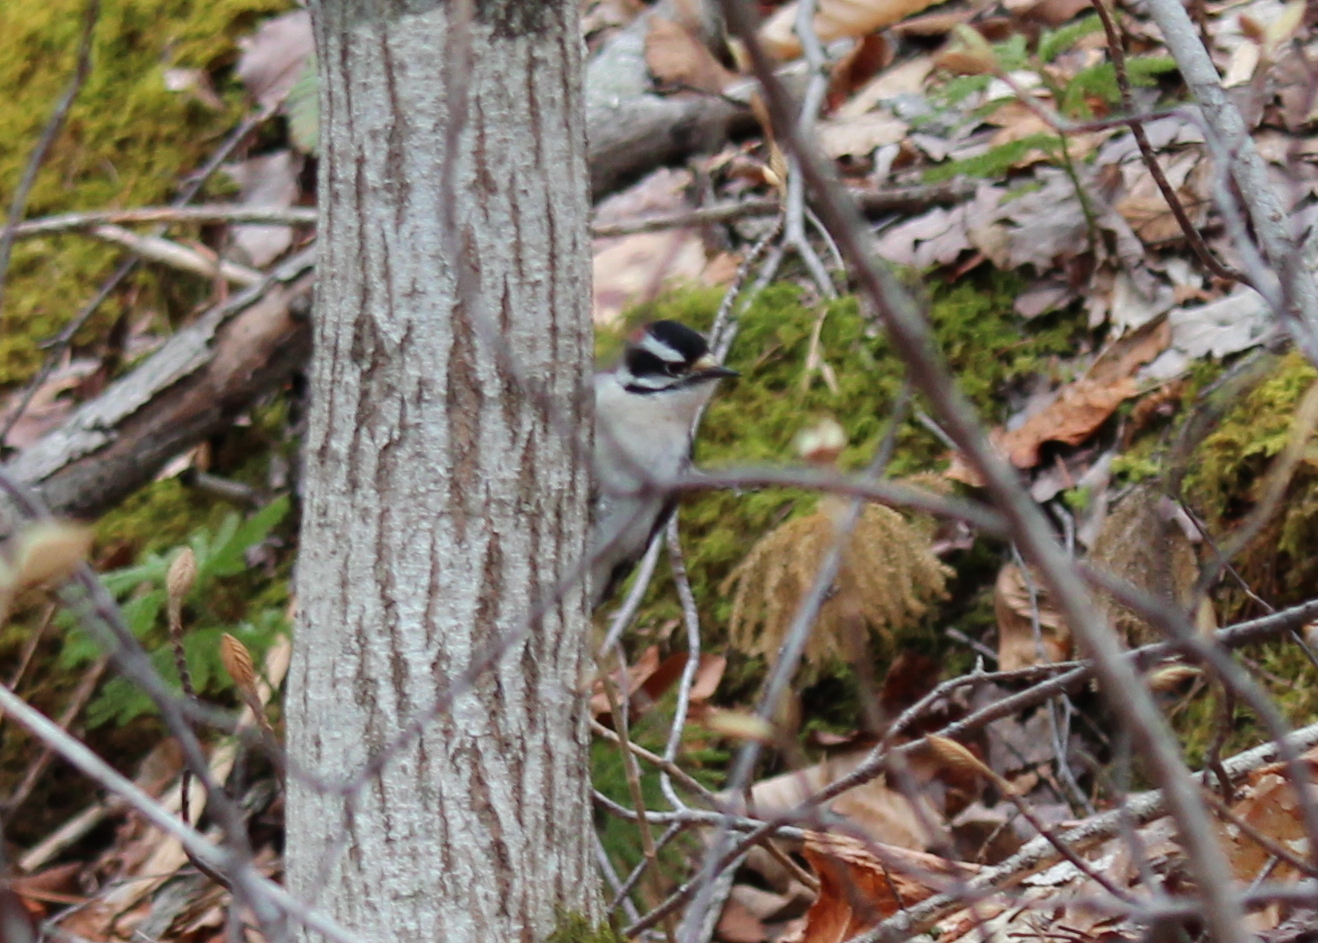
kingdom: Animalia
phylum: Chordata
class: Aves
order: Piciformes
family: Picidae
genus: Dryobates
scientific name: Dryobates pubescens
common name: Downy woodpecker
